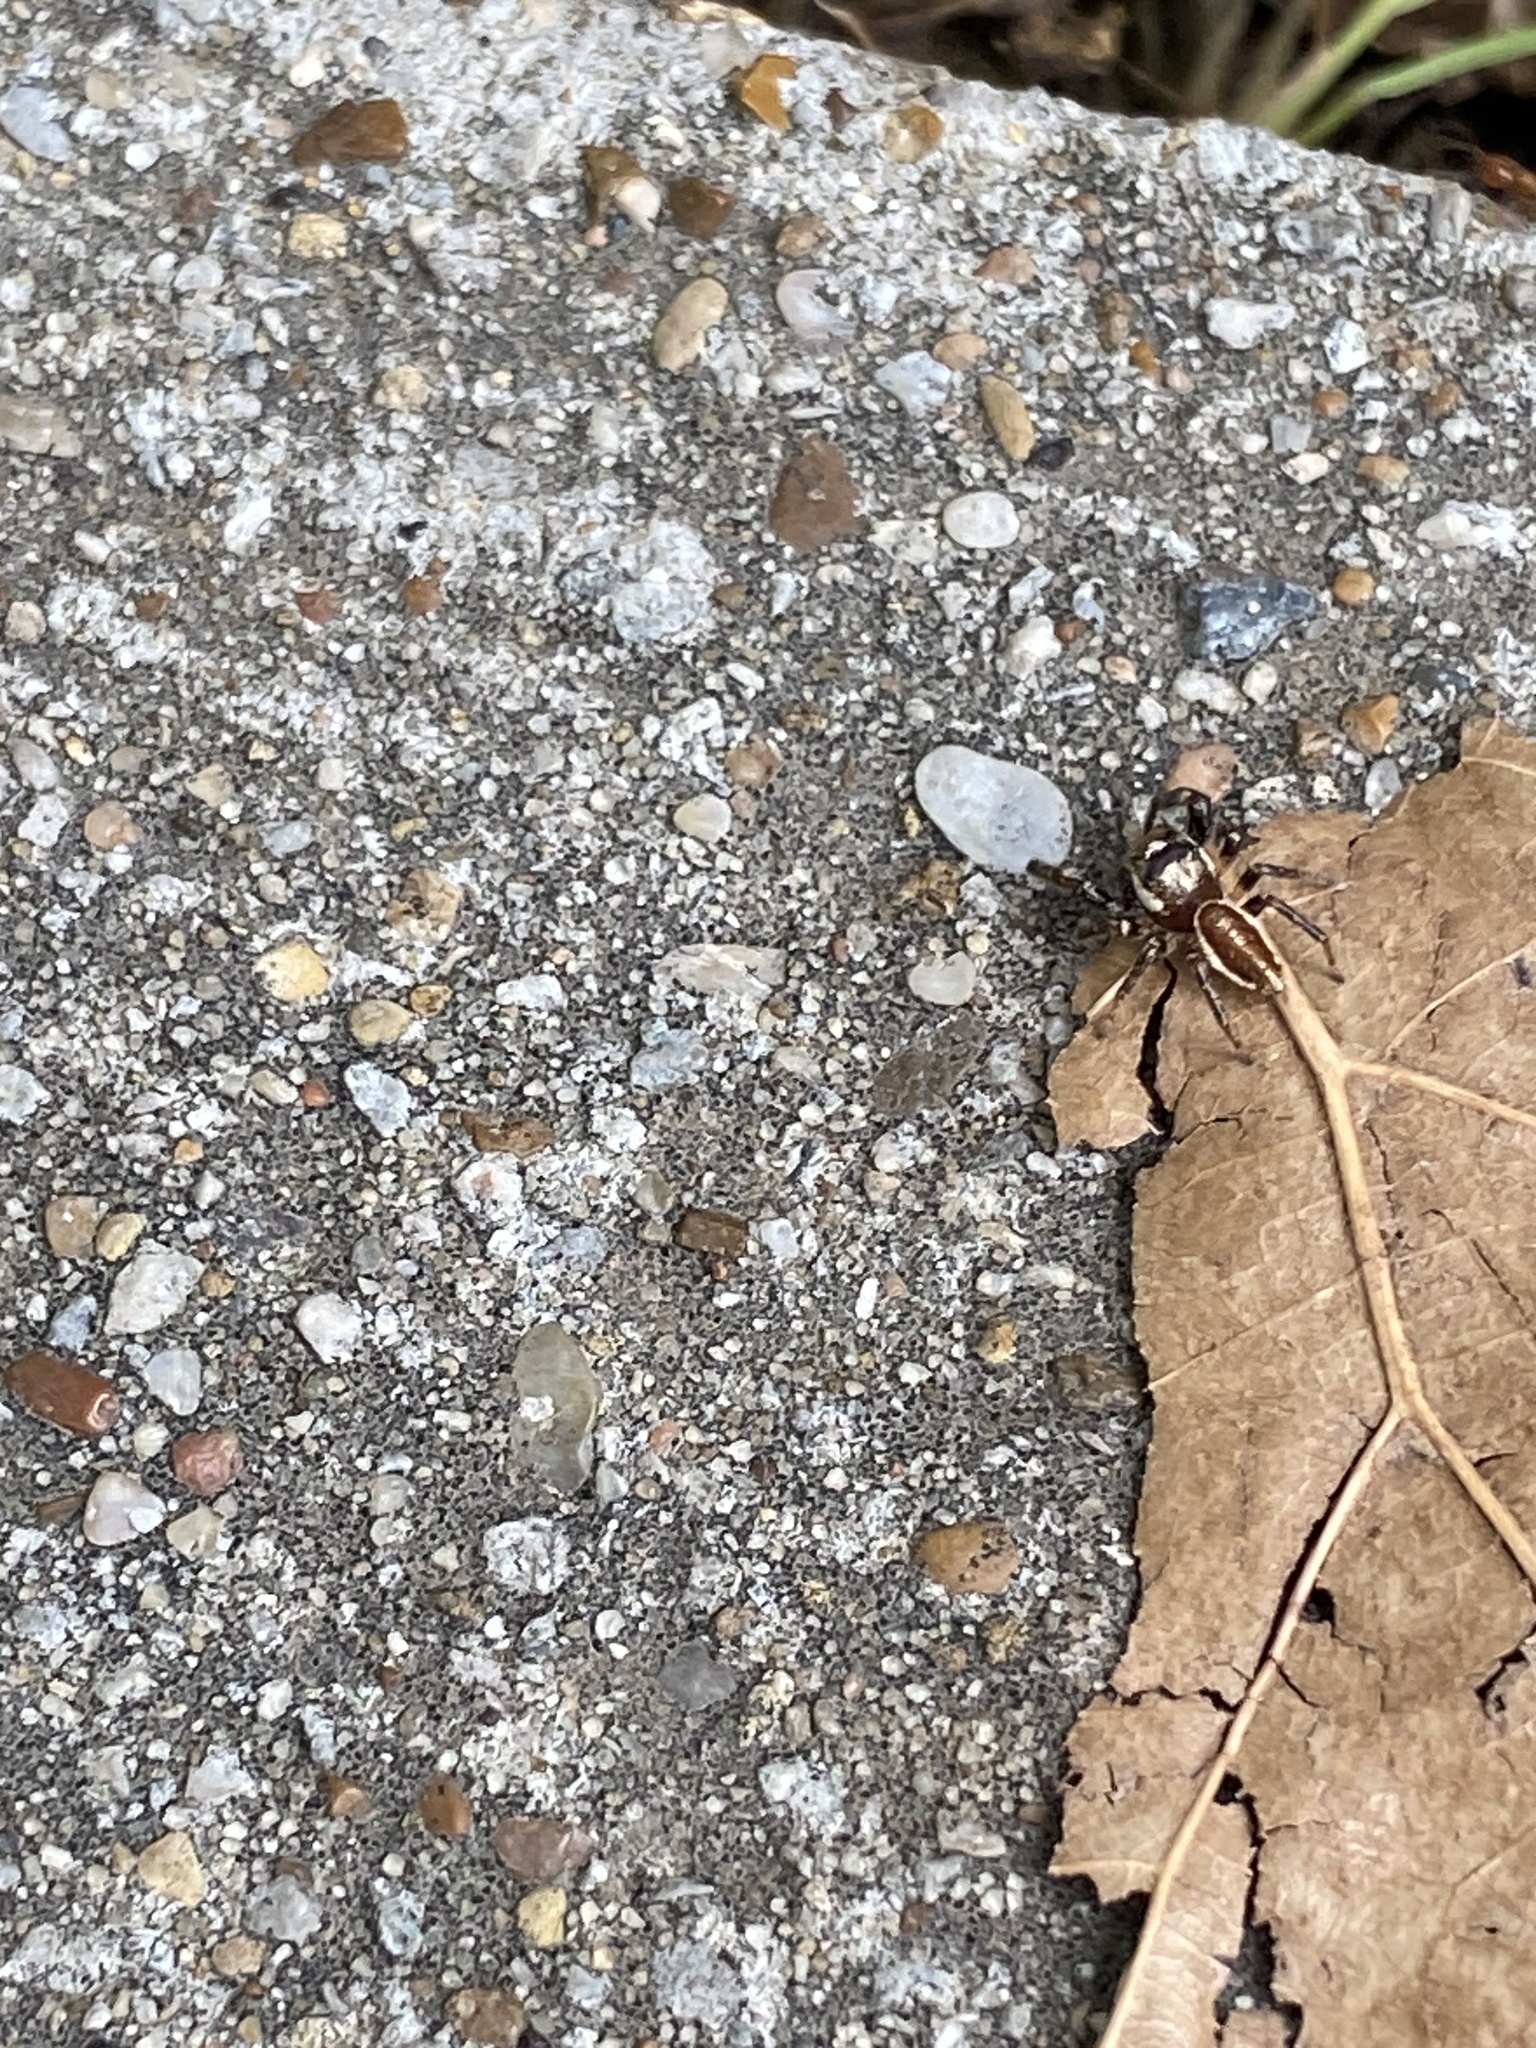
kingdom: Animalia
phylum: Arthropoda
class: Arachnida
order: Araneae
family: Salticidae
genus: Eris
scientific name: Eris militaris
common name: Bronze jumper
